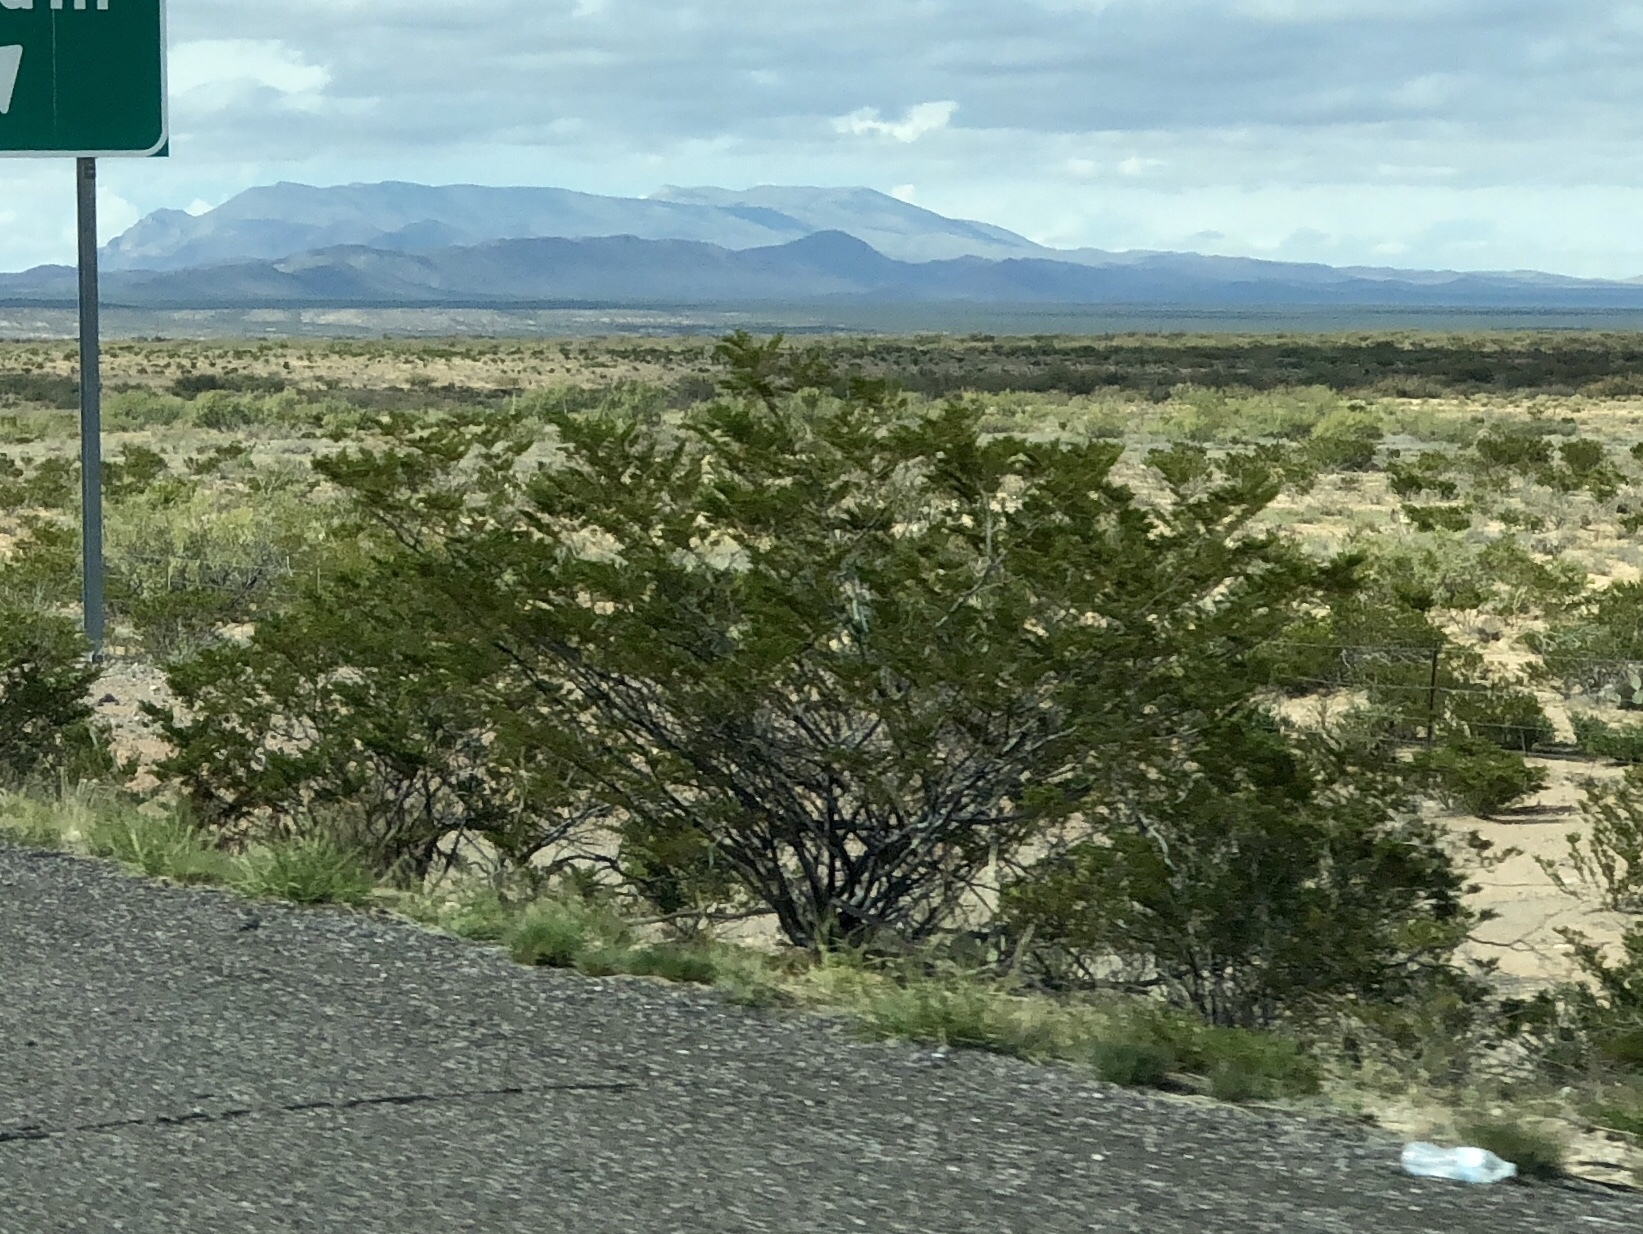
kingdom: Plantae
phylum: Tracheophyta
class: Magnoliopsida
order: Zygophyllales
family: Zygophyllaceae
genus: Larrea
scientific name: Larrea tridentata
